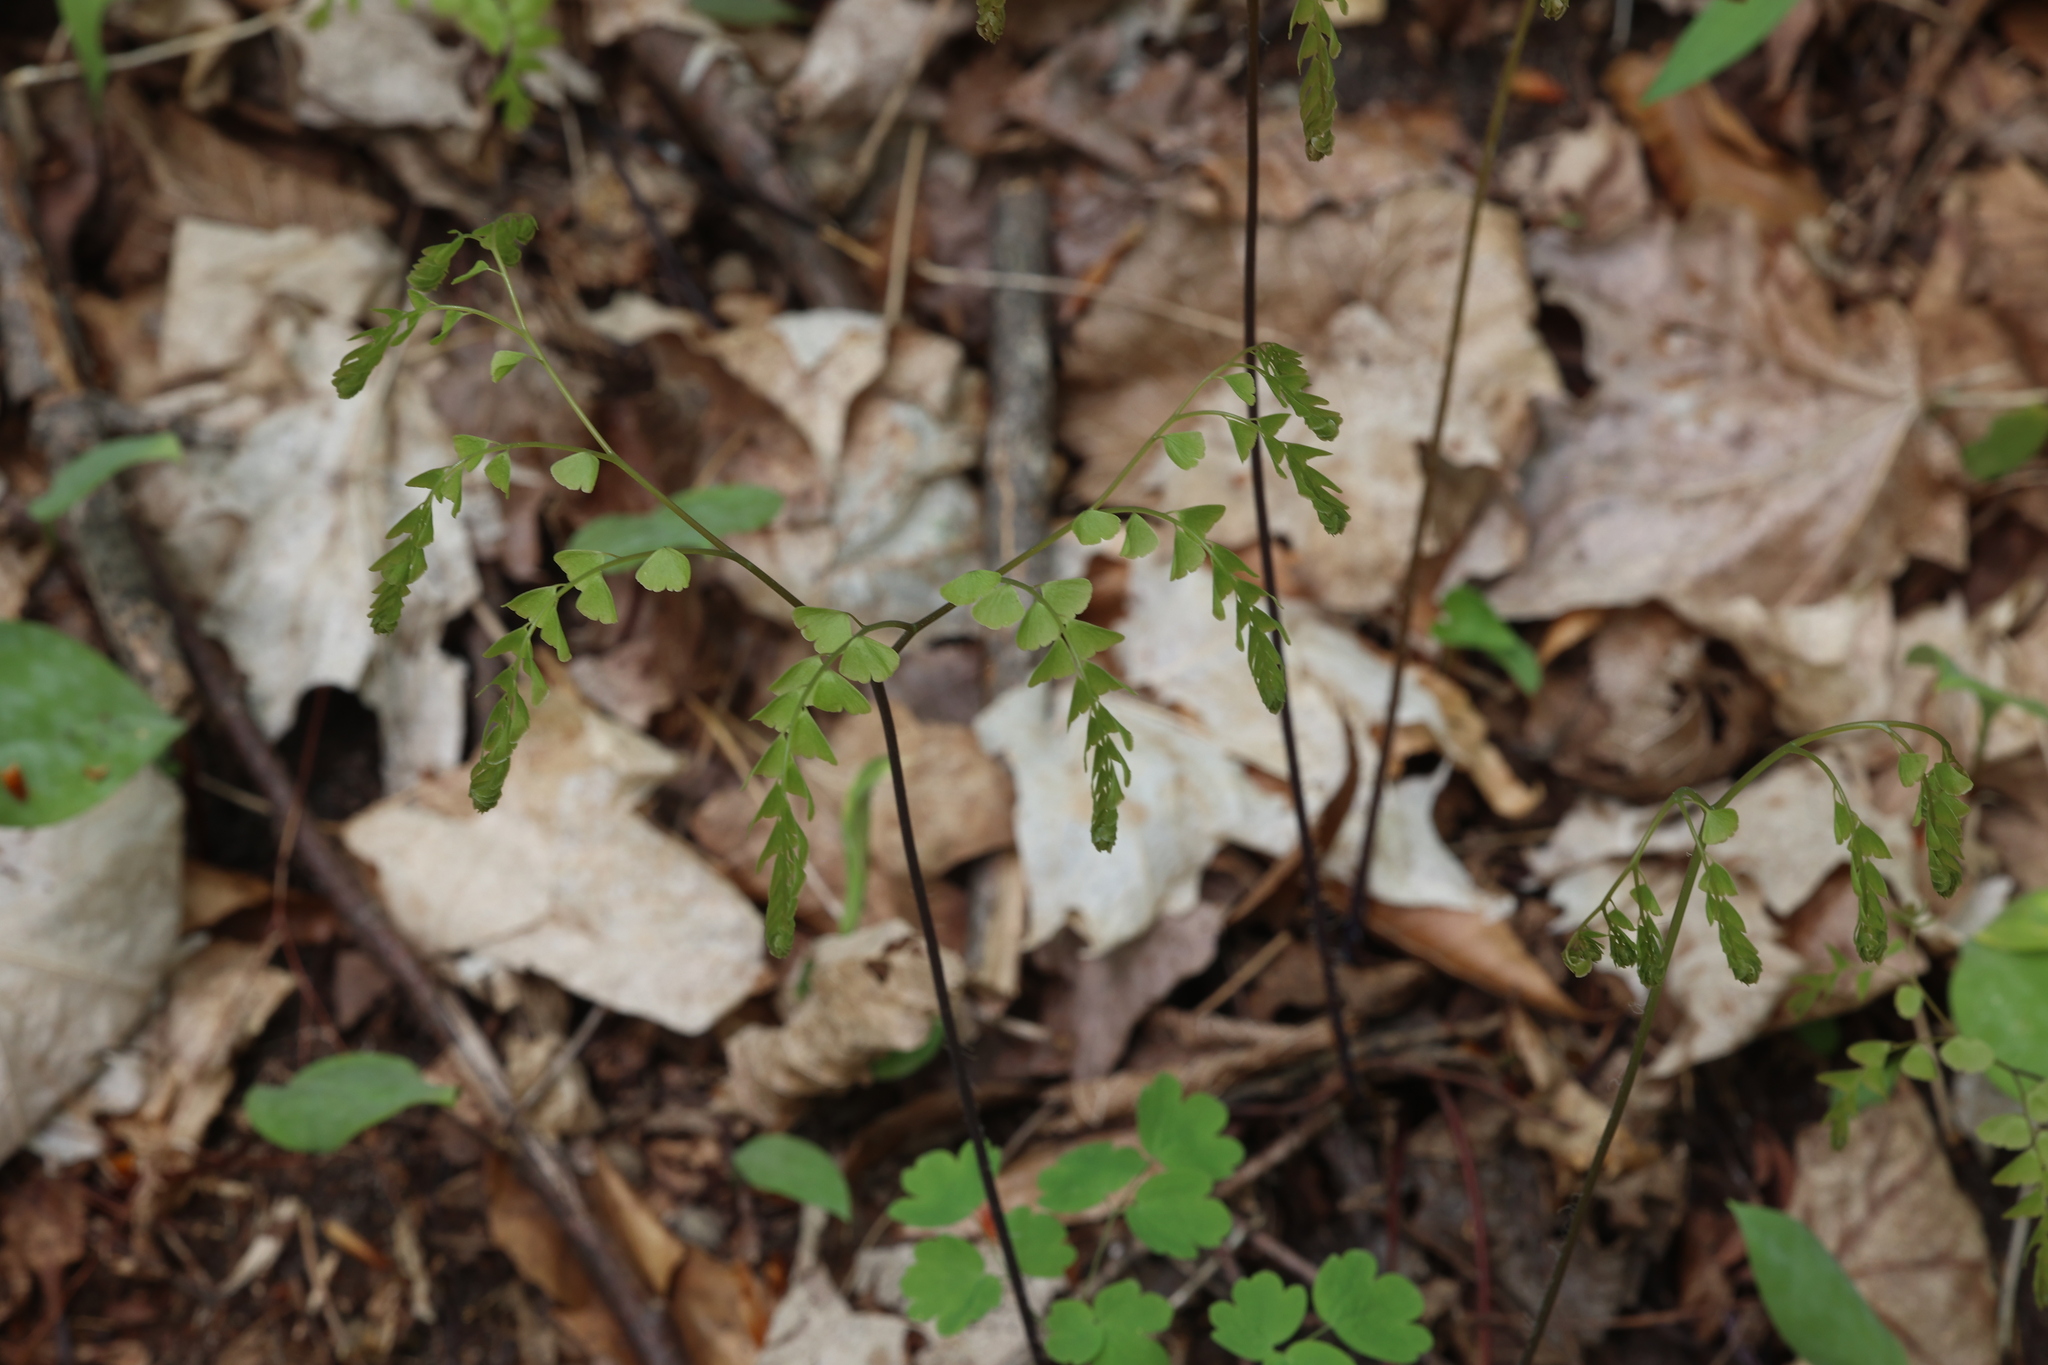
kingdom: Plantae
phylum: Tracheophyta
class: Polypodiopsida
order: Polypodiales
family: Pteridaceae
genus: Adiantum
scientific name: Adiantum pedatum
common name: Five-finger fern
